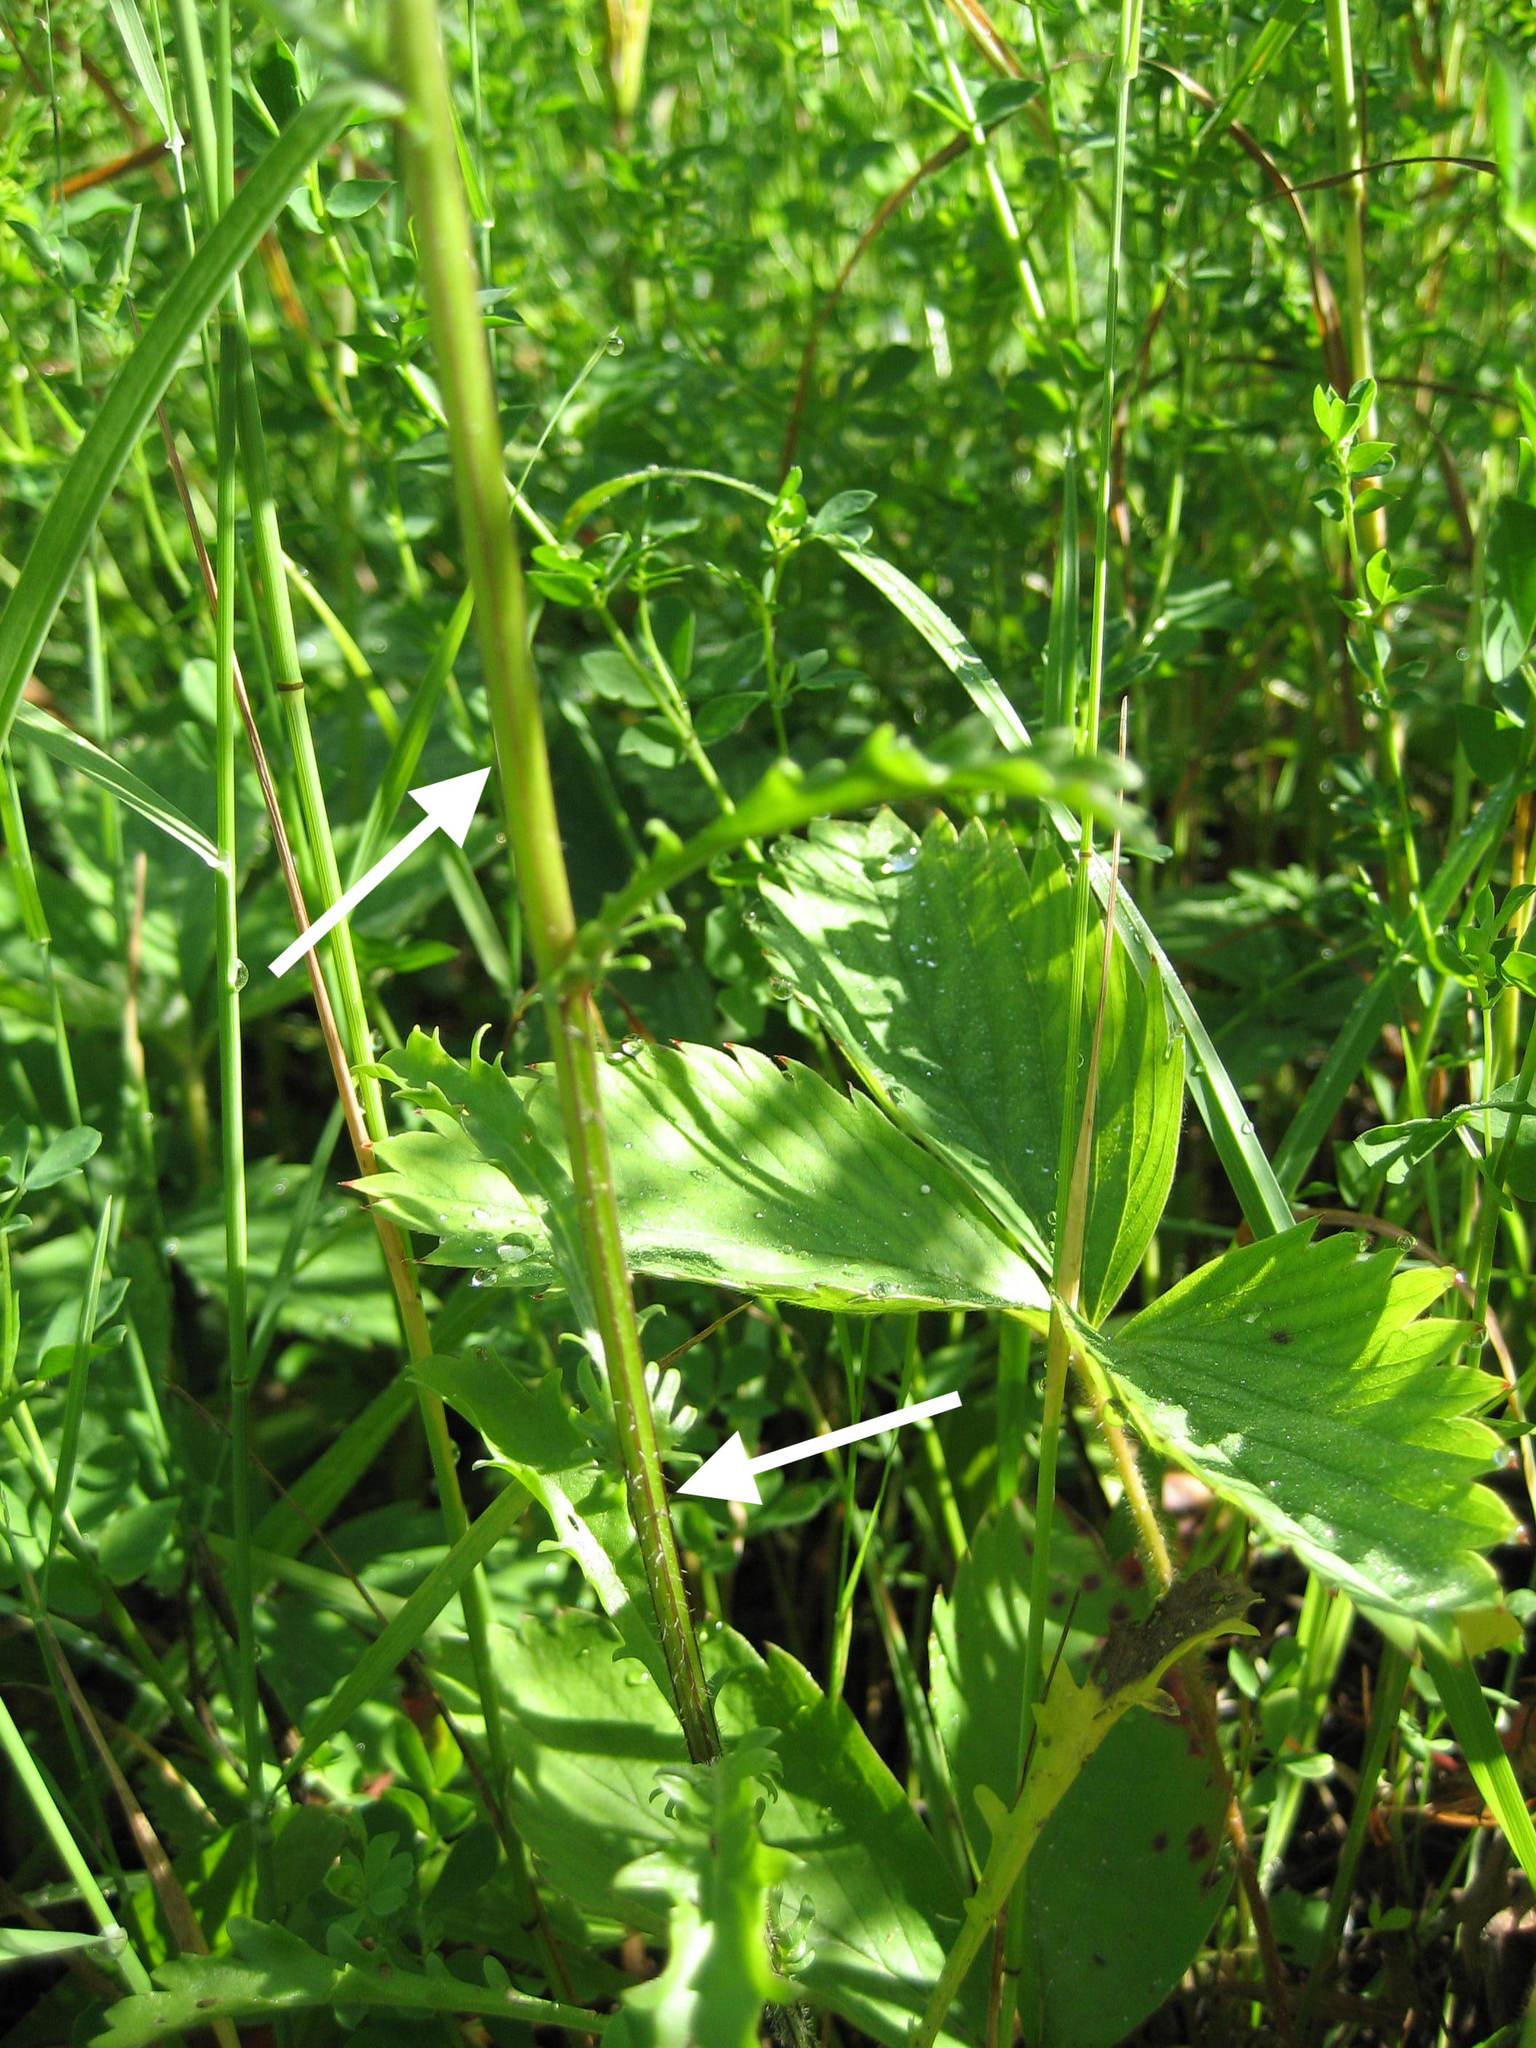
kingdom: Plantae
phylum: Tracheophyta
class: Magnoliopsida
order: Asterales
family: Asteraceae
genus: Leucanthemum
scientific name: Leucanthemum vulgare
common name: Oxeye daisy
